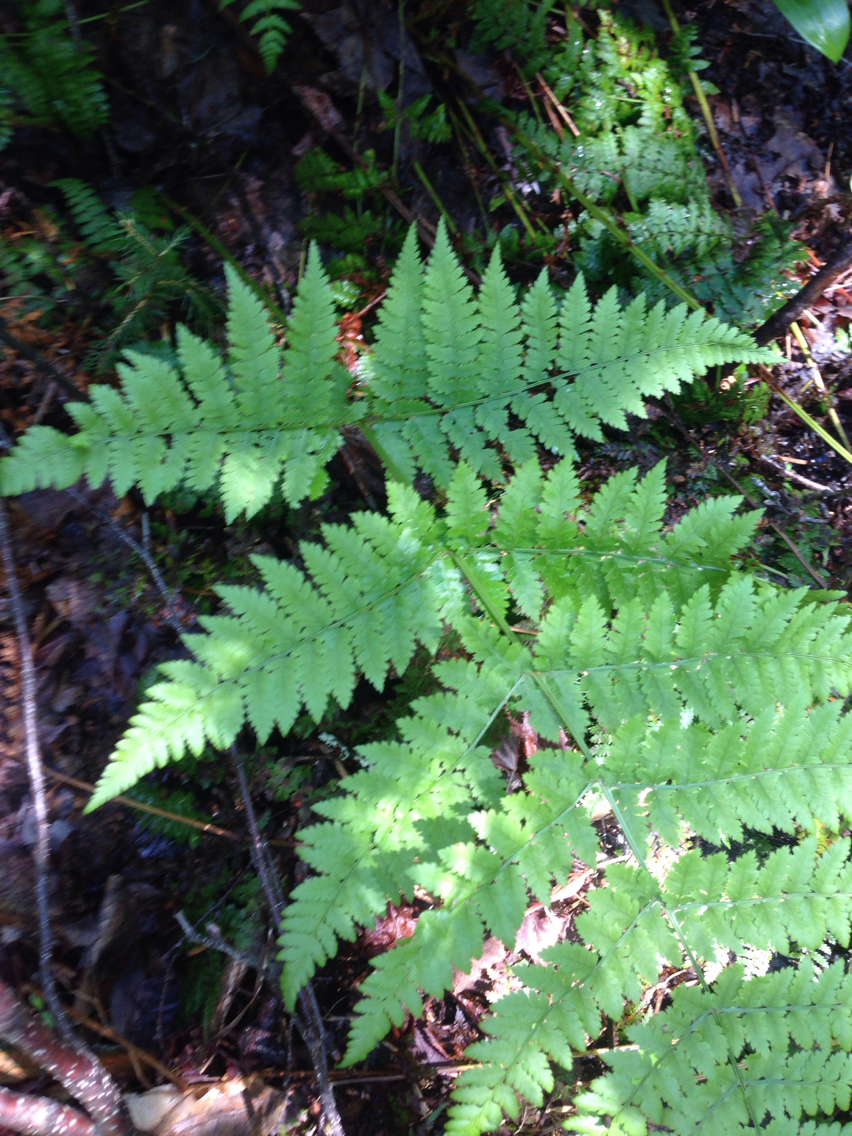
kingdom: Plantae
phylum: Tracheophyta
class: Polypodiopsida
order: Polypodiales
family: Dryopteridaceae
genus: Dryopteris
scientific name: Dryopteris campyloptera
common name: Mountain wood fern
